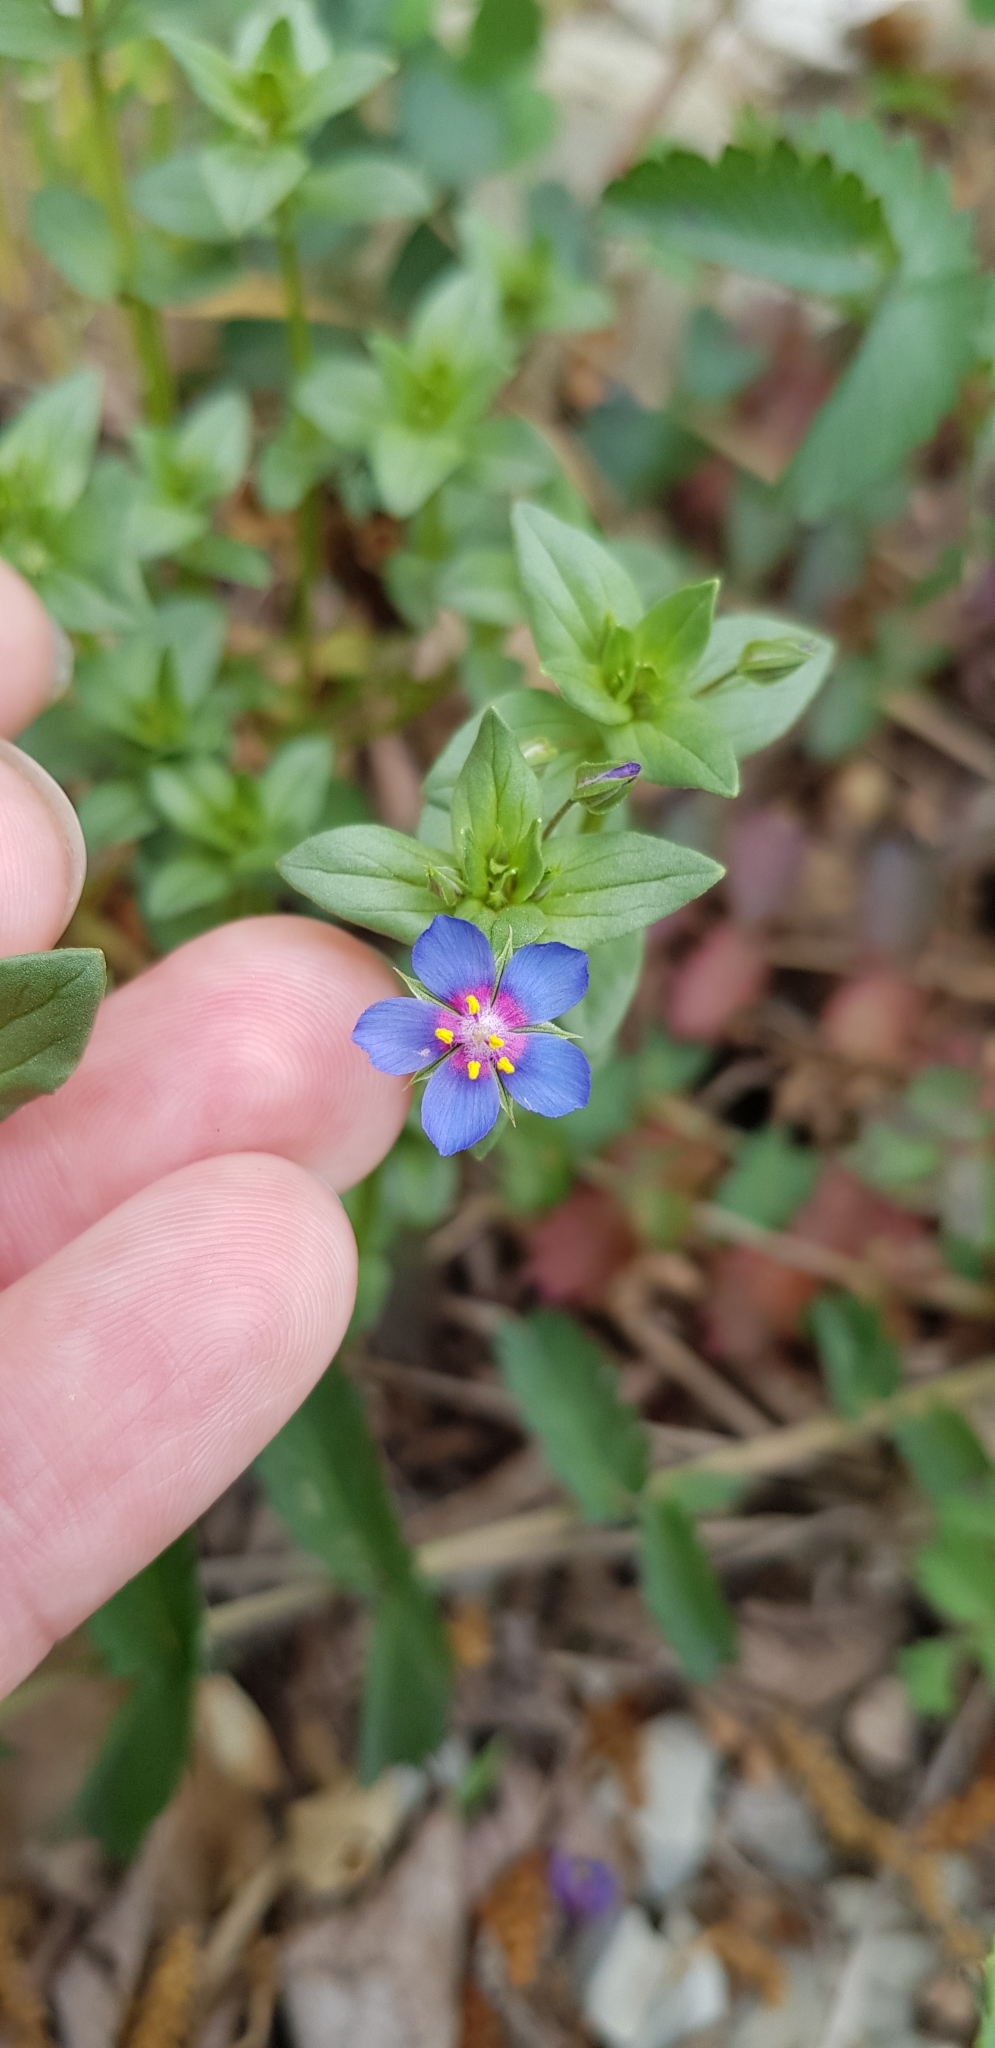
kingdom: Plantae
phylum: Tracheophyta
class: Magnoliopsida
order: Ericales
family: Primulaceae
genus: Lysimachia
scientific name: Lysimachia foemina
